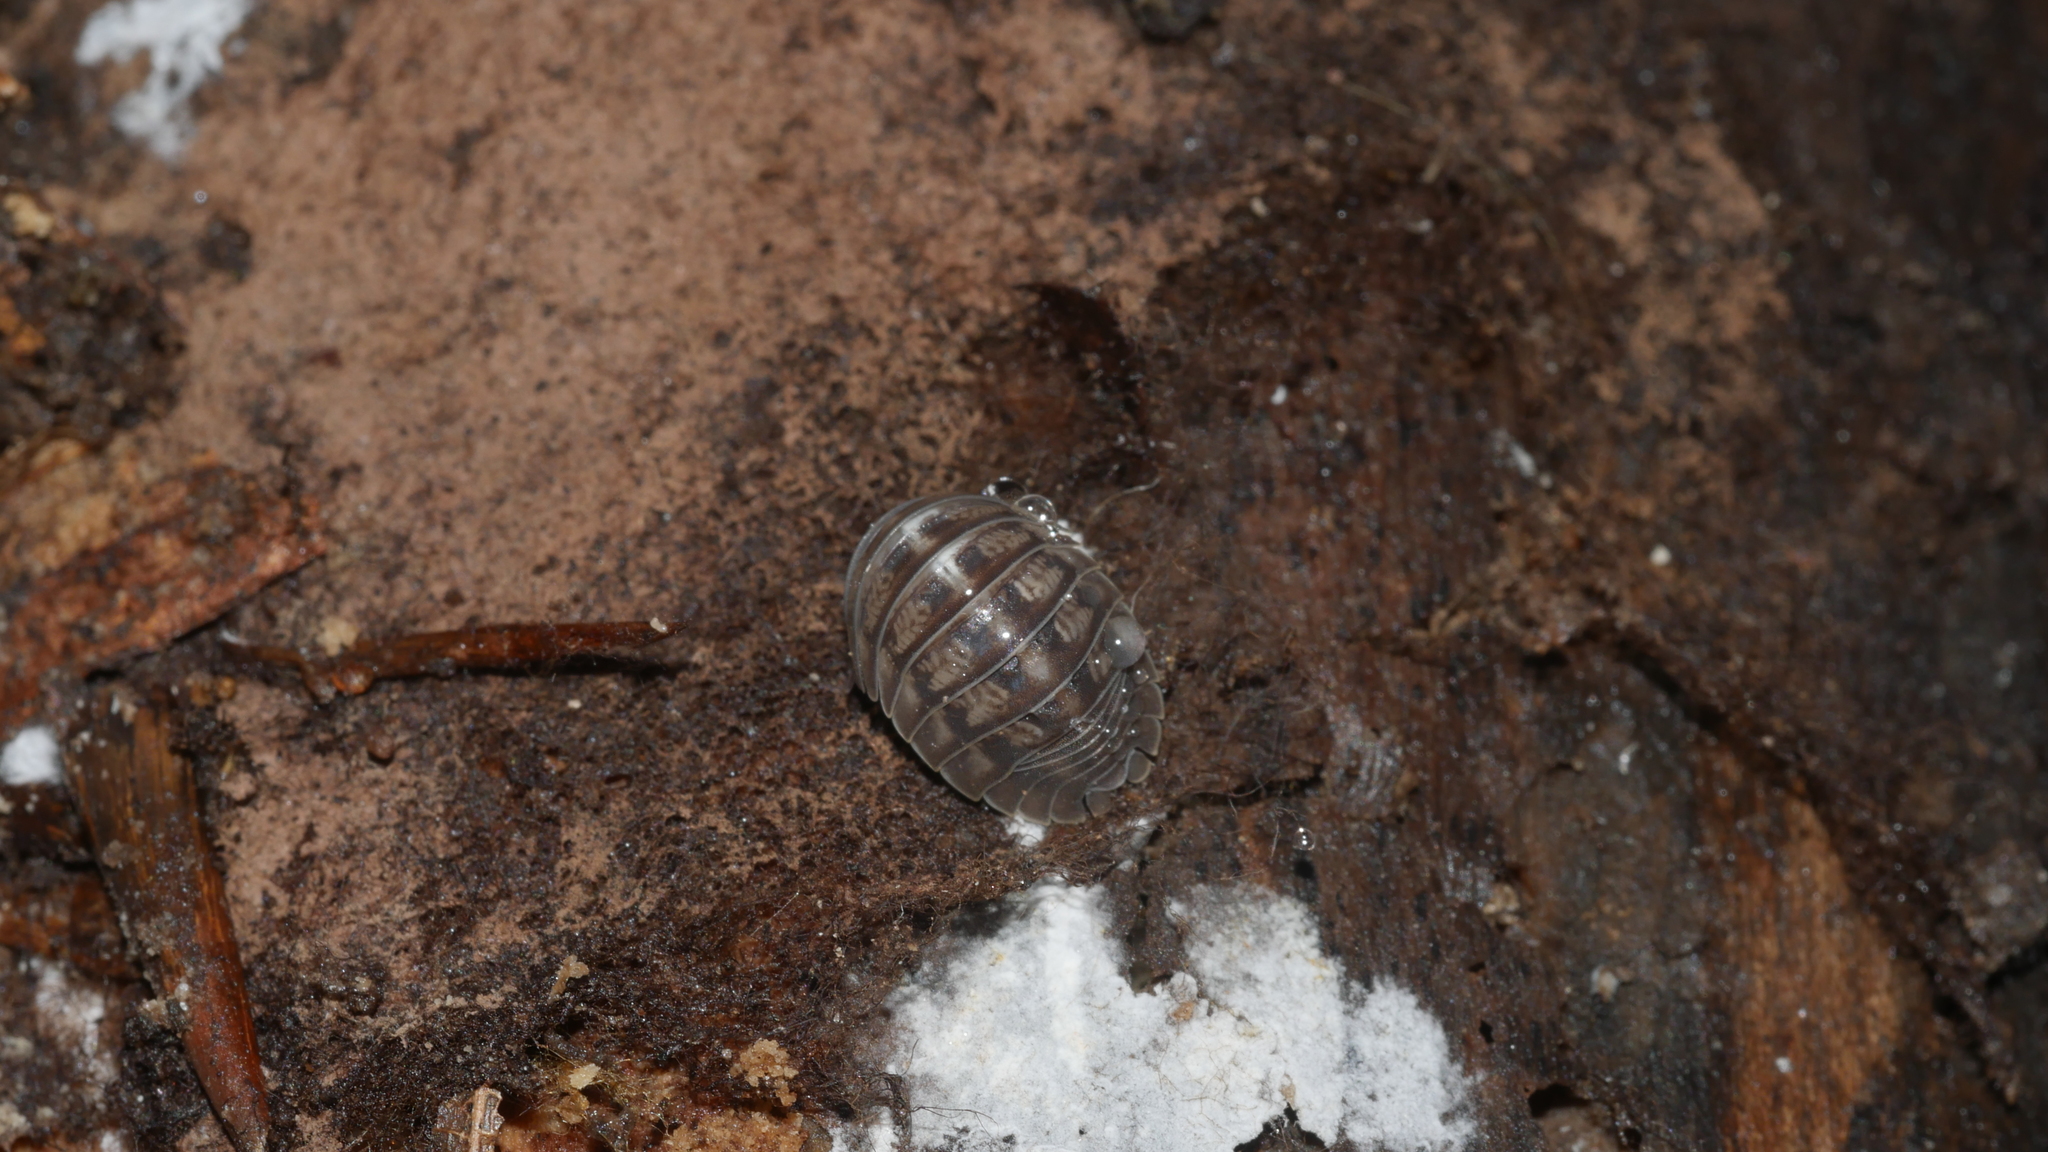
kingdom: Animalia
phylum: Arthropoda
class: Malacostraca
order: Isopoda
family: Armadillidiidae
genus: Armadillidium
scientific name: Armadillidium nasatum
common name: Isopod
